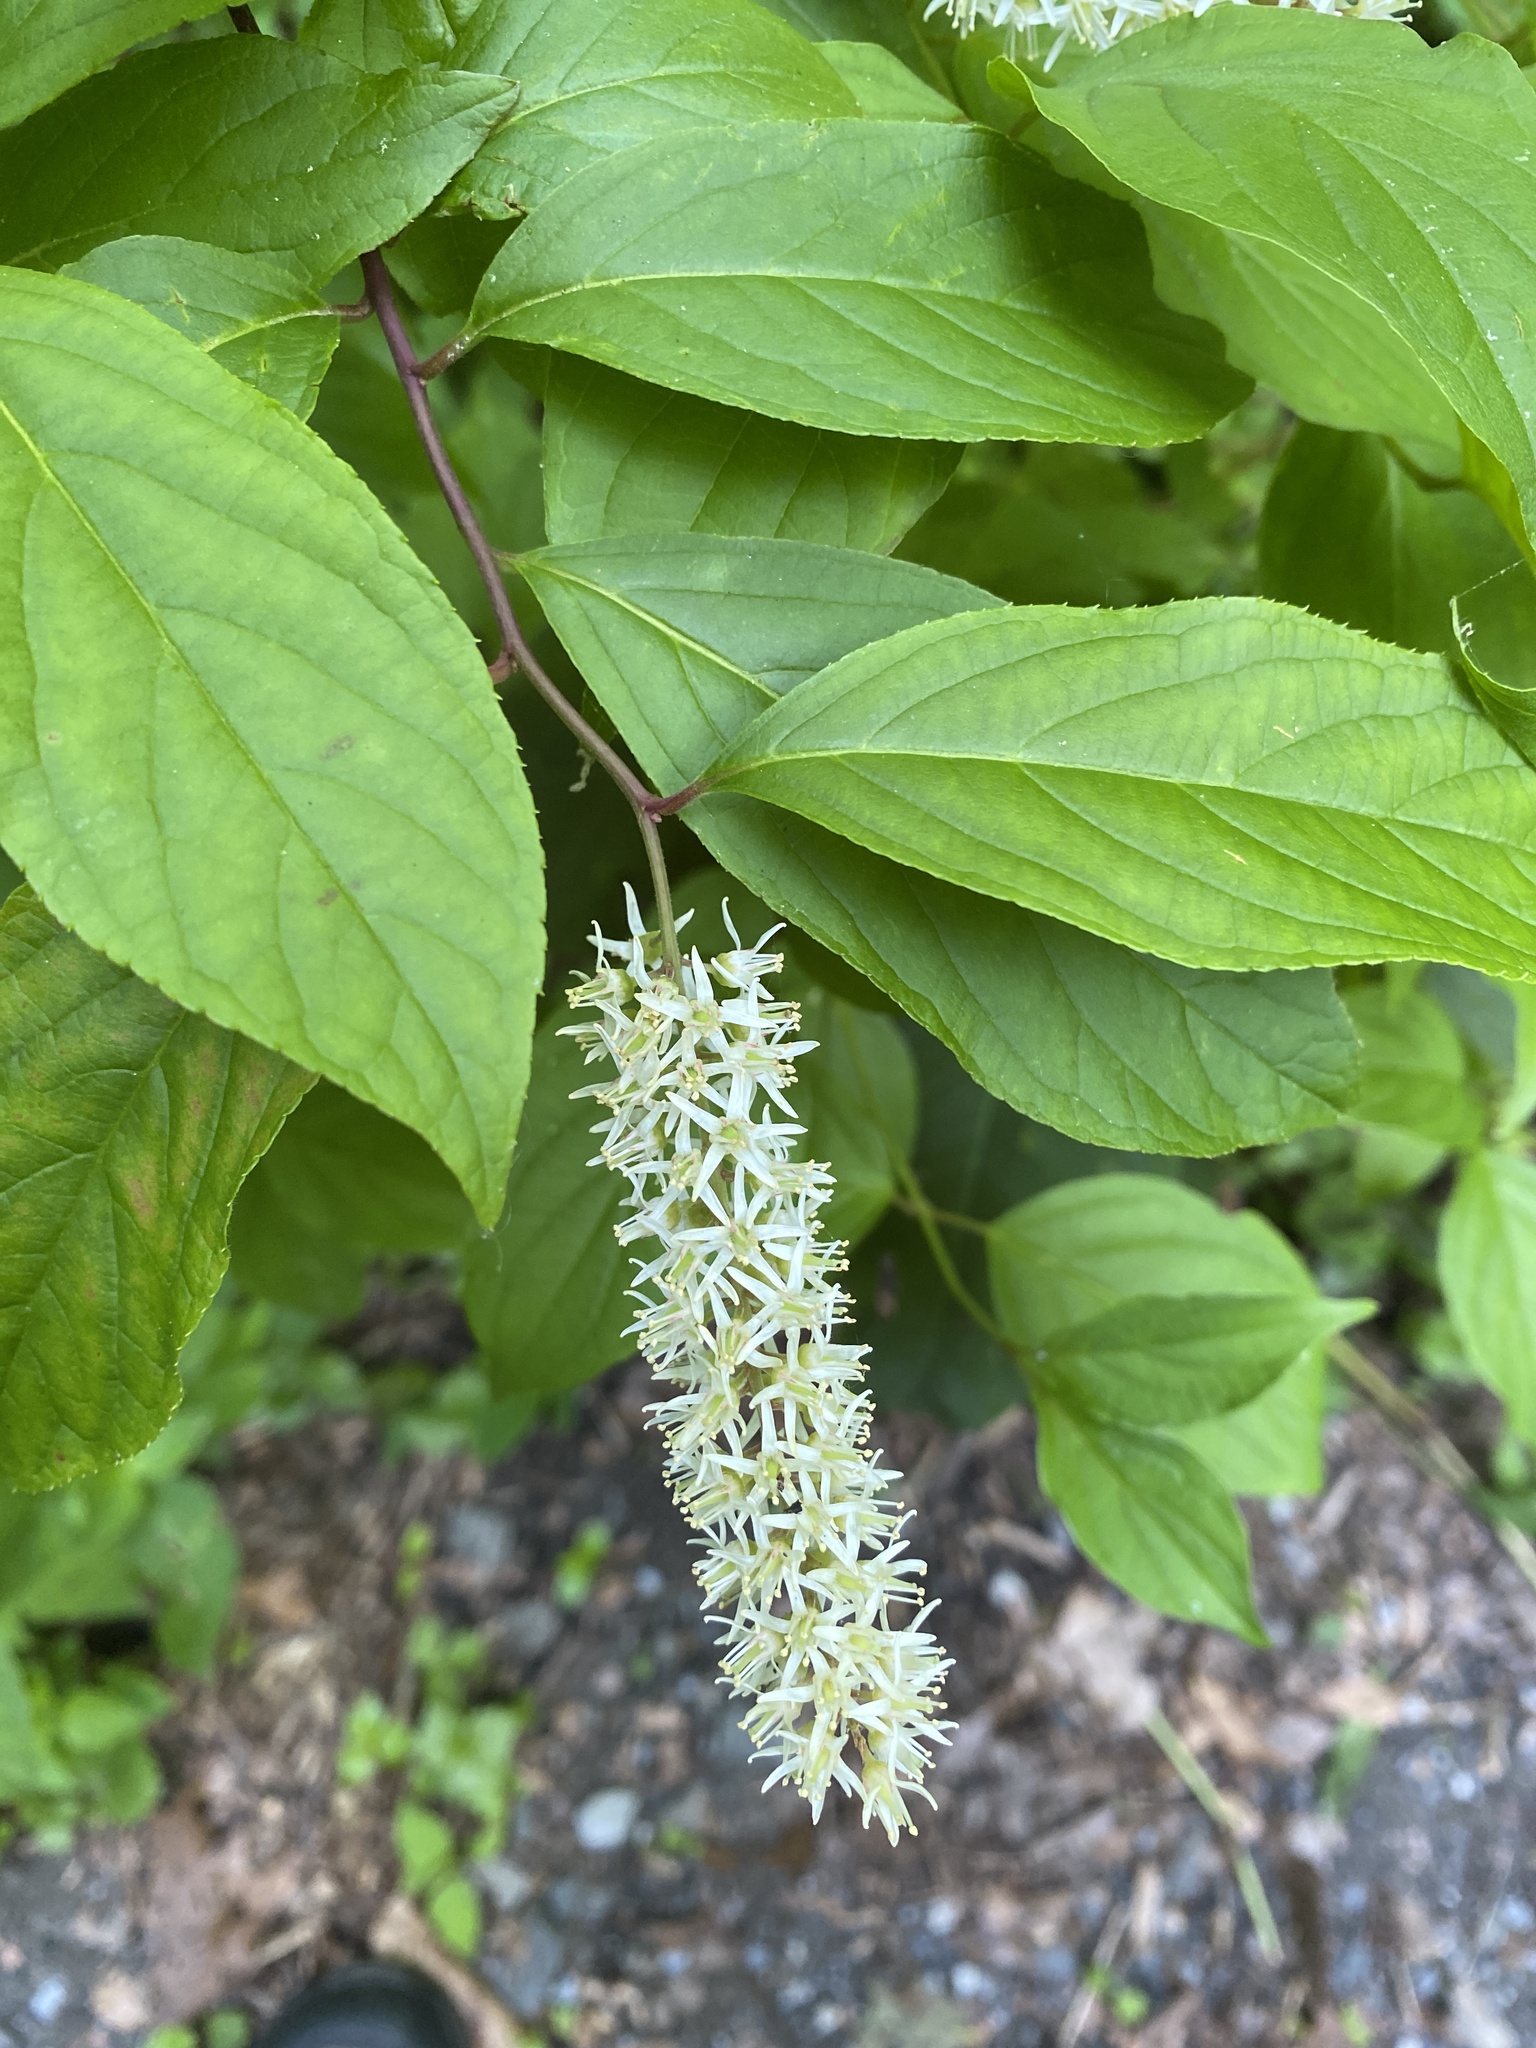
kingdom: Plantae
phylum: Tracheophyta
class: Magnoliopsida
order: Saxifragales
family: Iteaceae
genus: Itea
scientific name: Itea virginica
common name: Sweetspire
